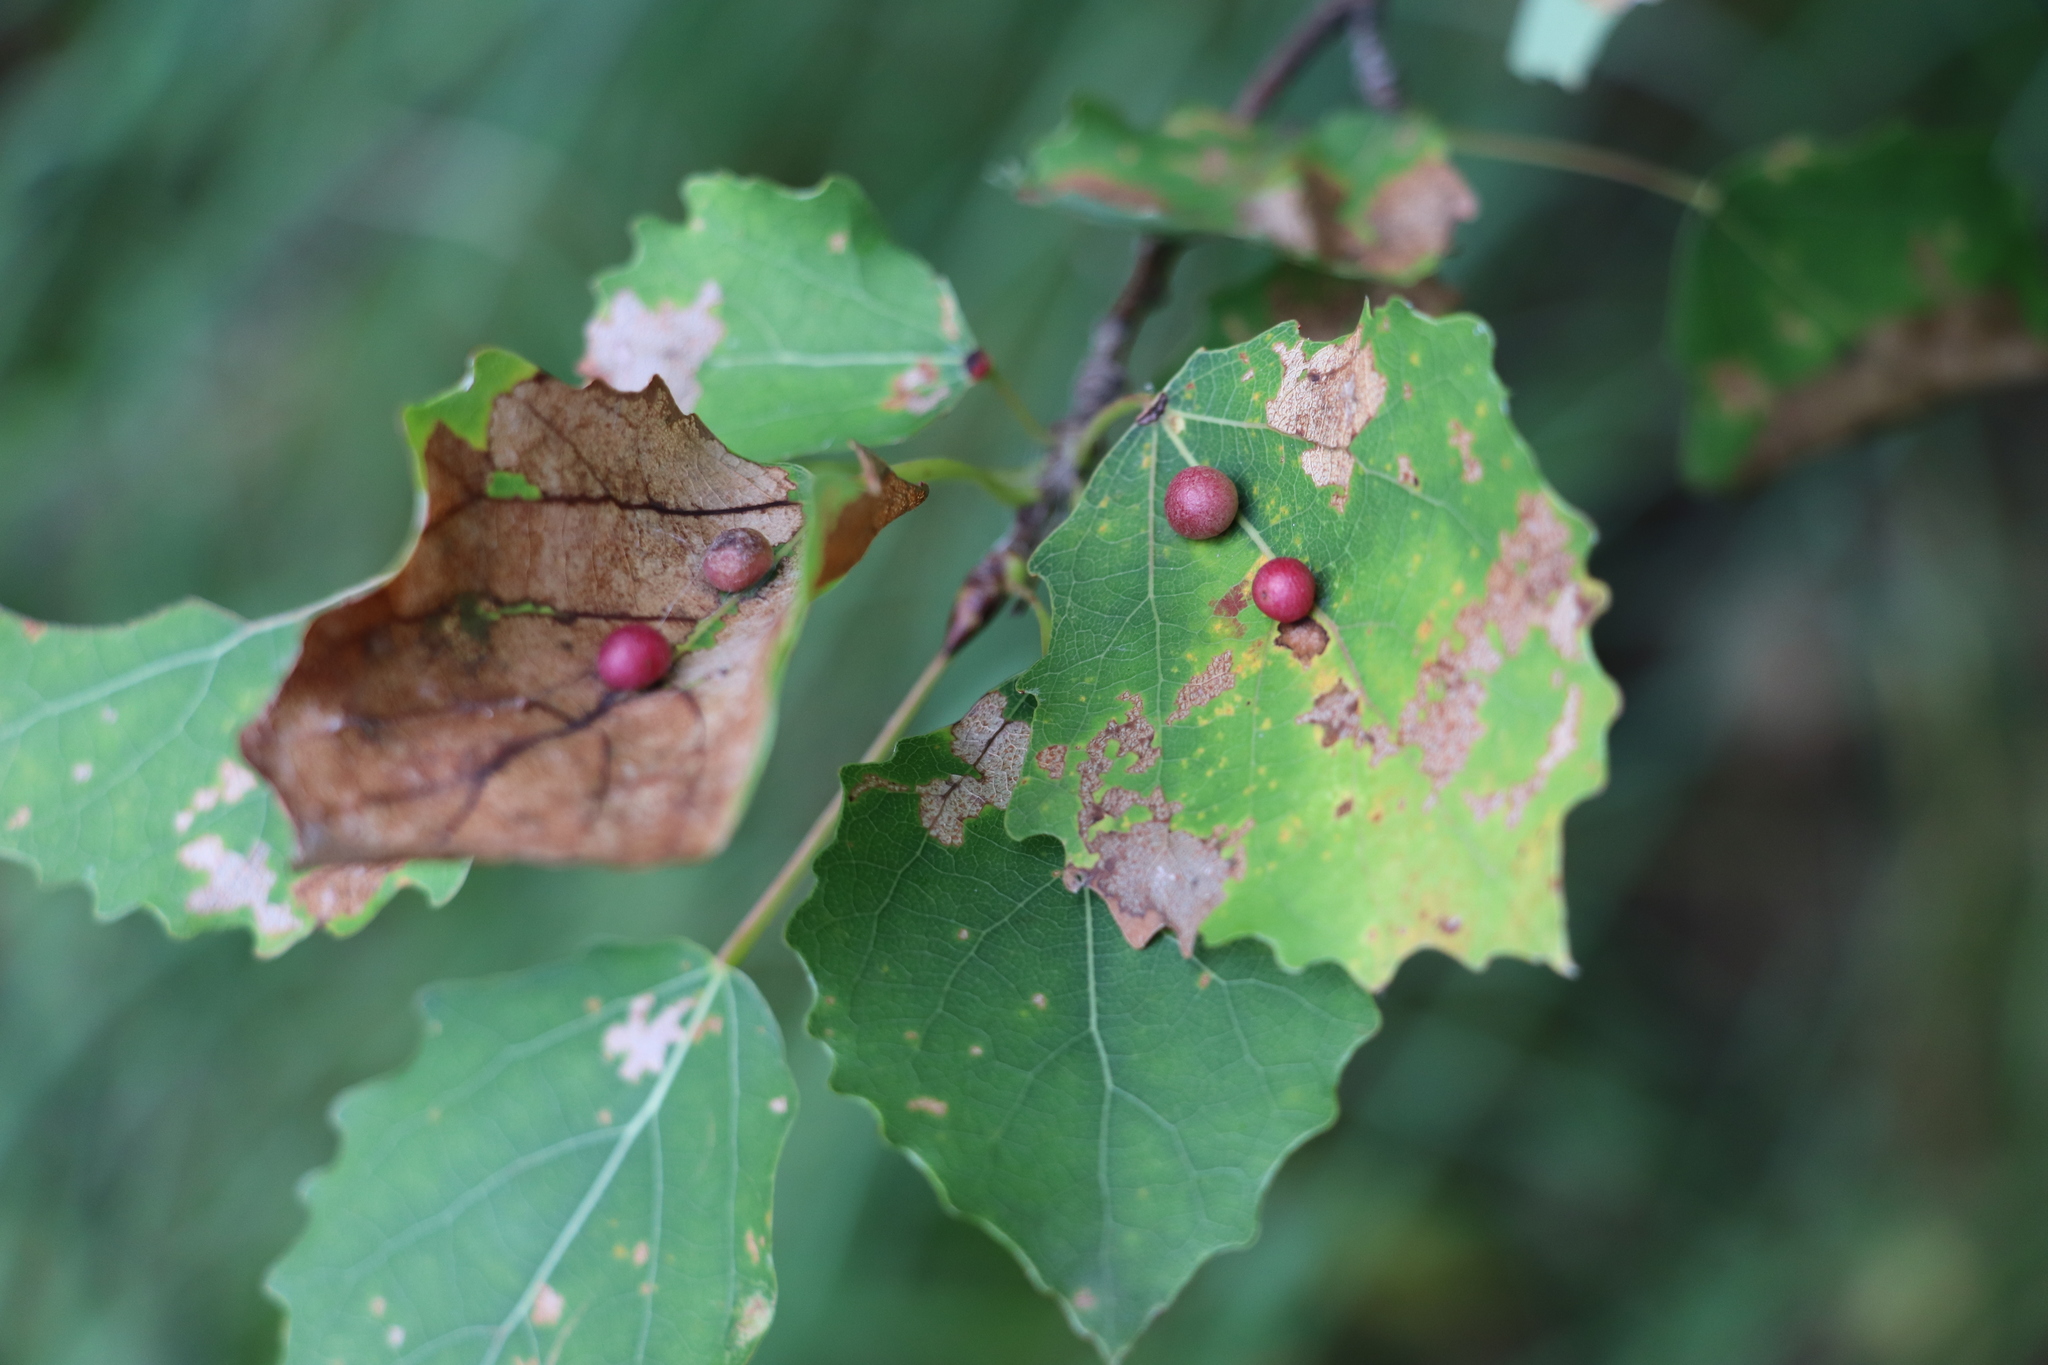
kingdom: Animalia
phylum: Arthropoda
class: Insecta
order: Diptera
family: Cecidomyiidae
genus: Harmandiola
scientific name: Harmandiola tremulae
